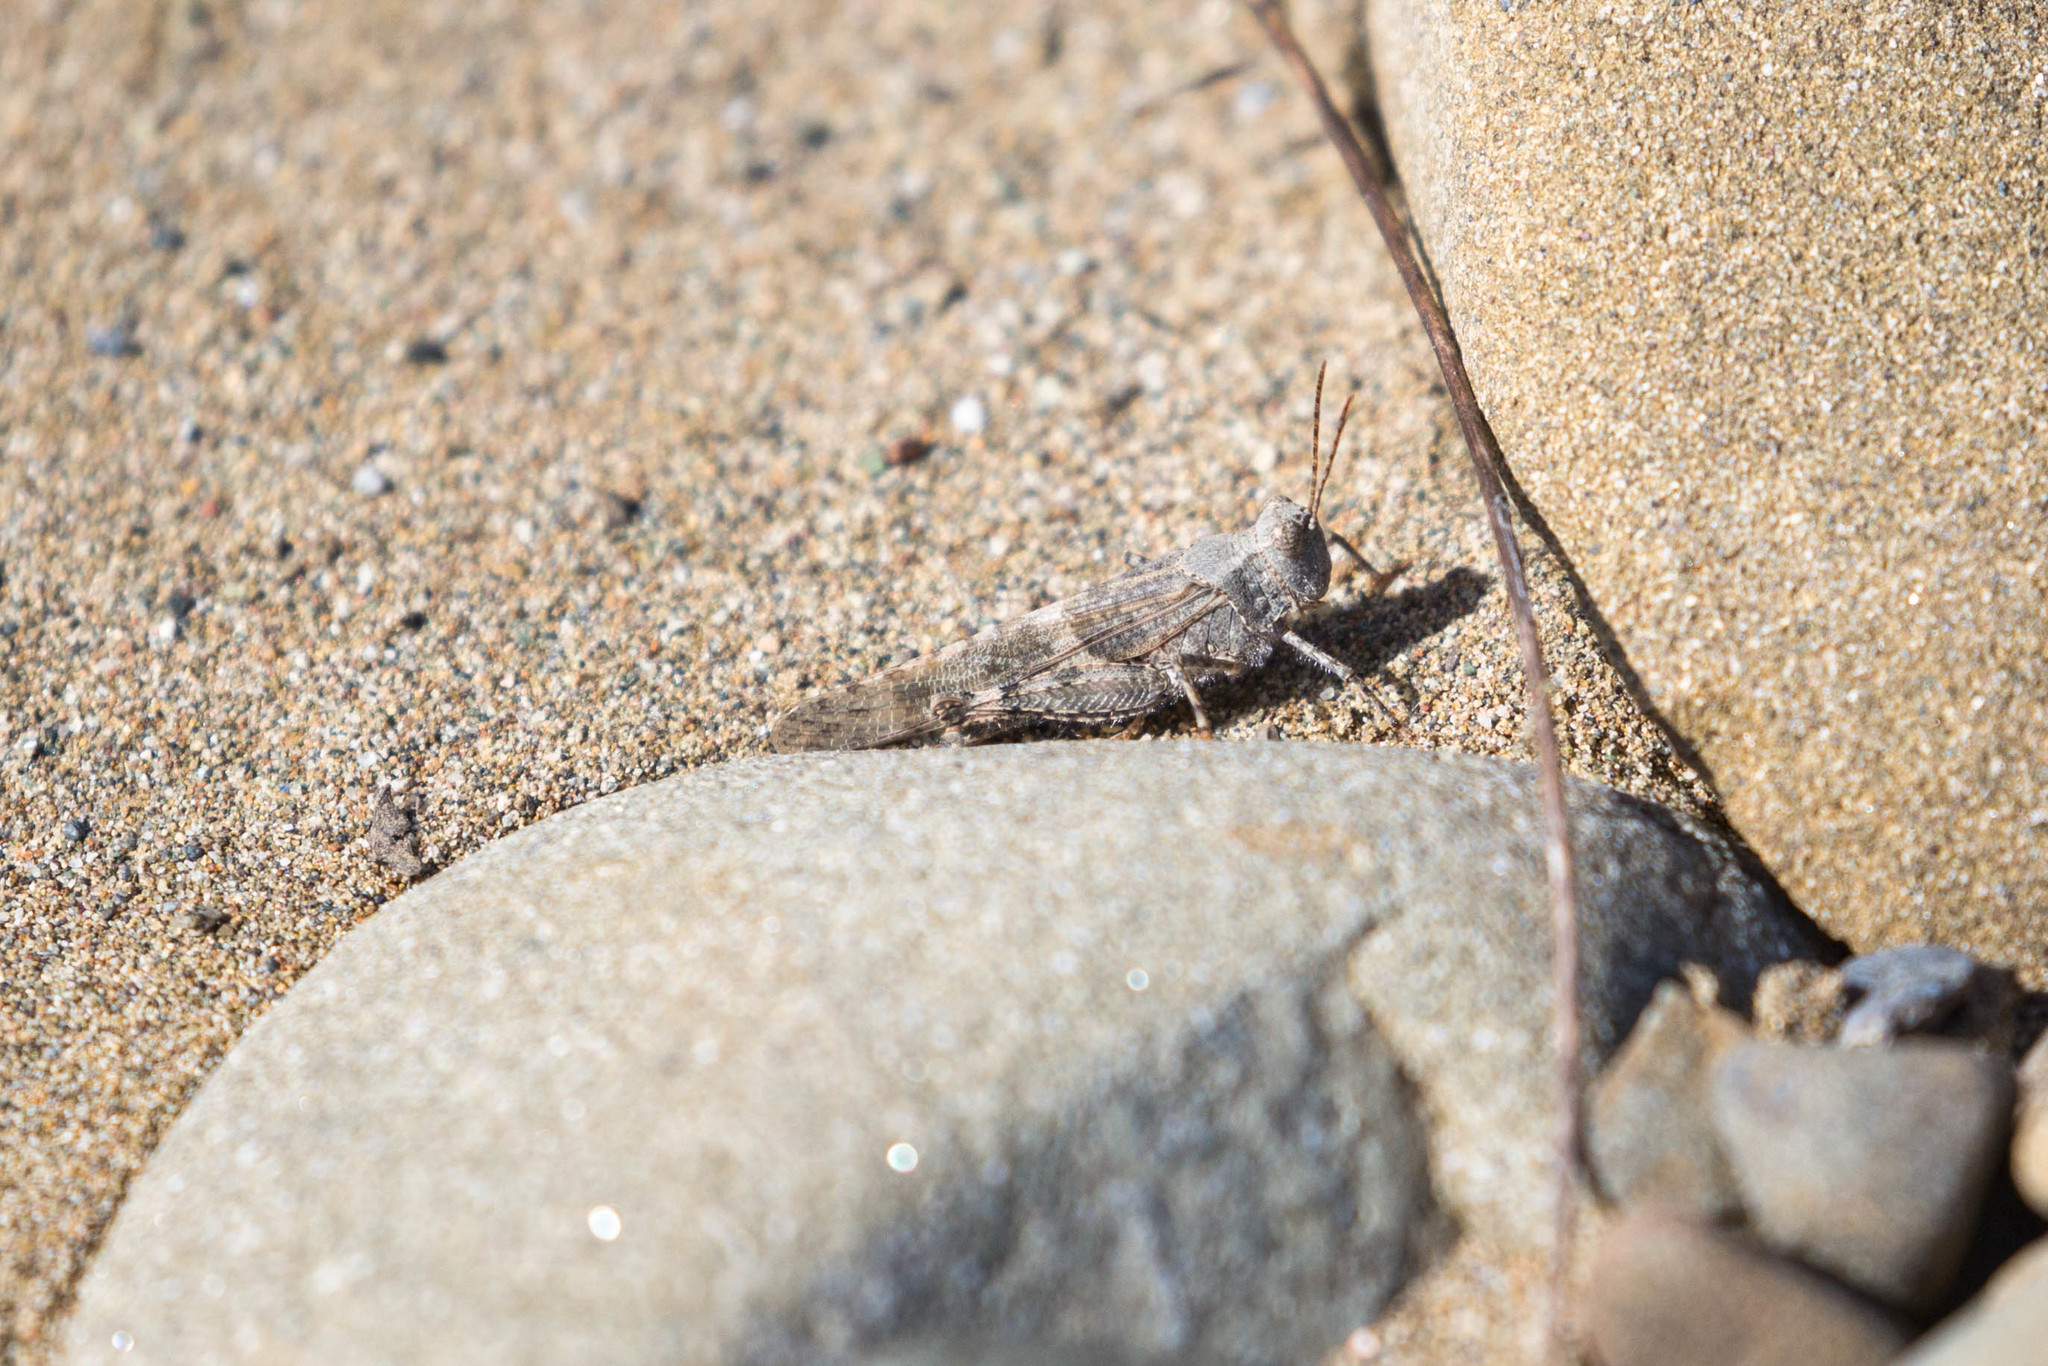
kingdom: Animalia
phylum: Arthropoda
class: Insecta
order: Orthoptera
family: Acrididae
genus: Trimerotropis
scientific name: Trimerotropis pallidipennis
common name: Pallid-winged grasshopper
